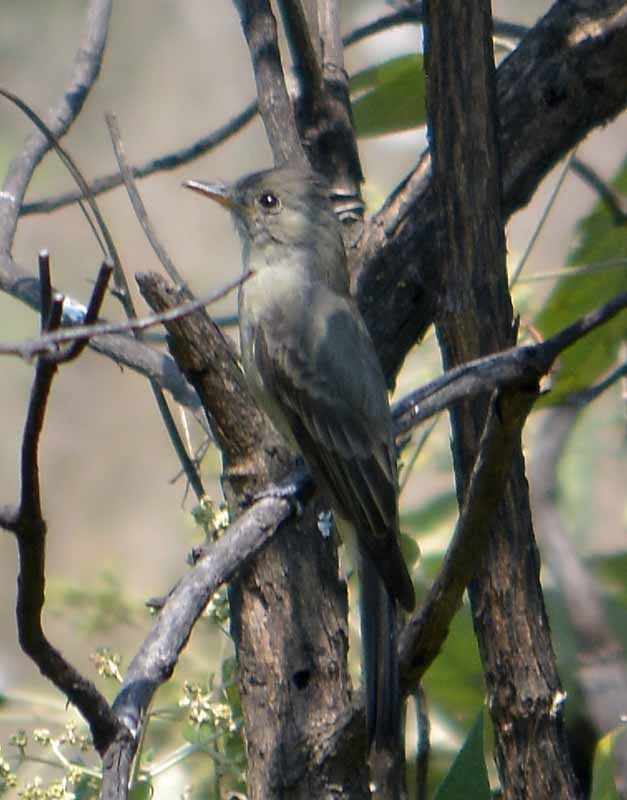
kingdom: Animalia
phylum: Chordata
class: Aves
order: Passeriformes
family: Tyrannidae
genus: Contopus
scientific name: Contopus pertinax
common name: Greater pewee
